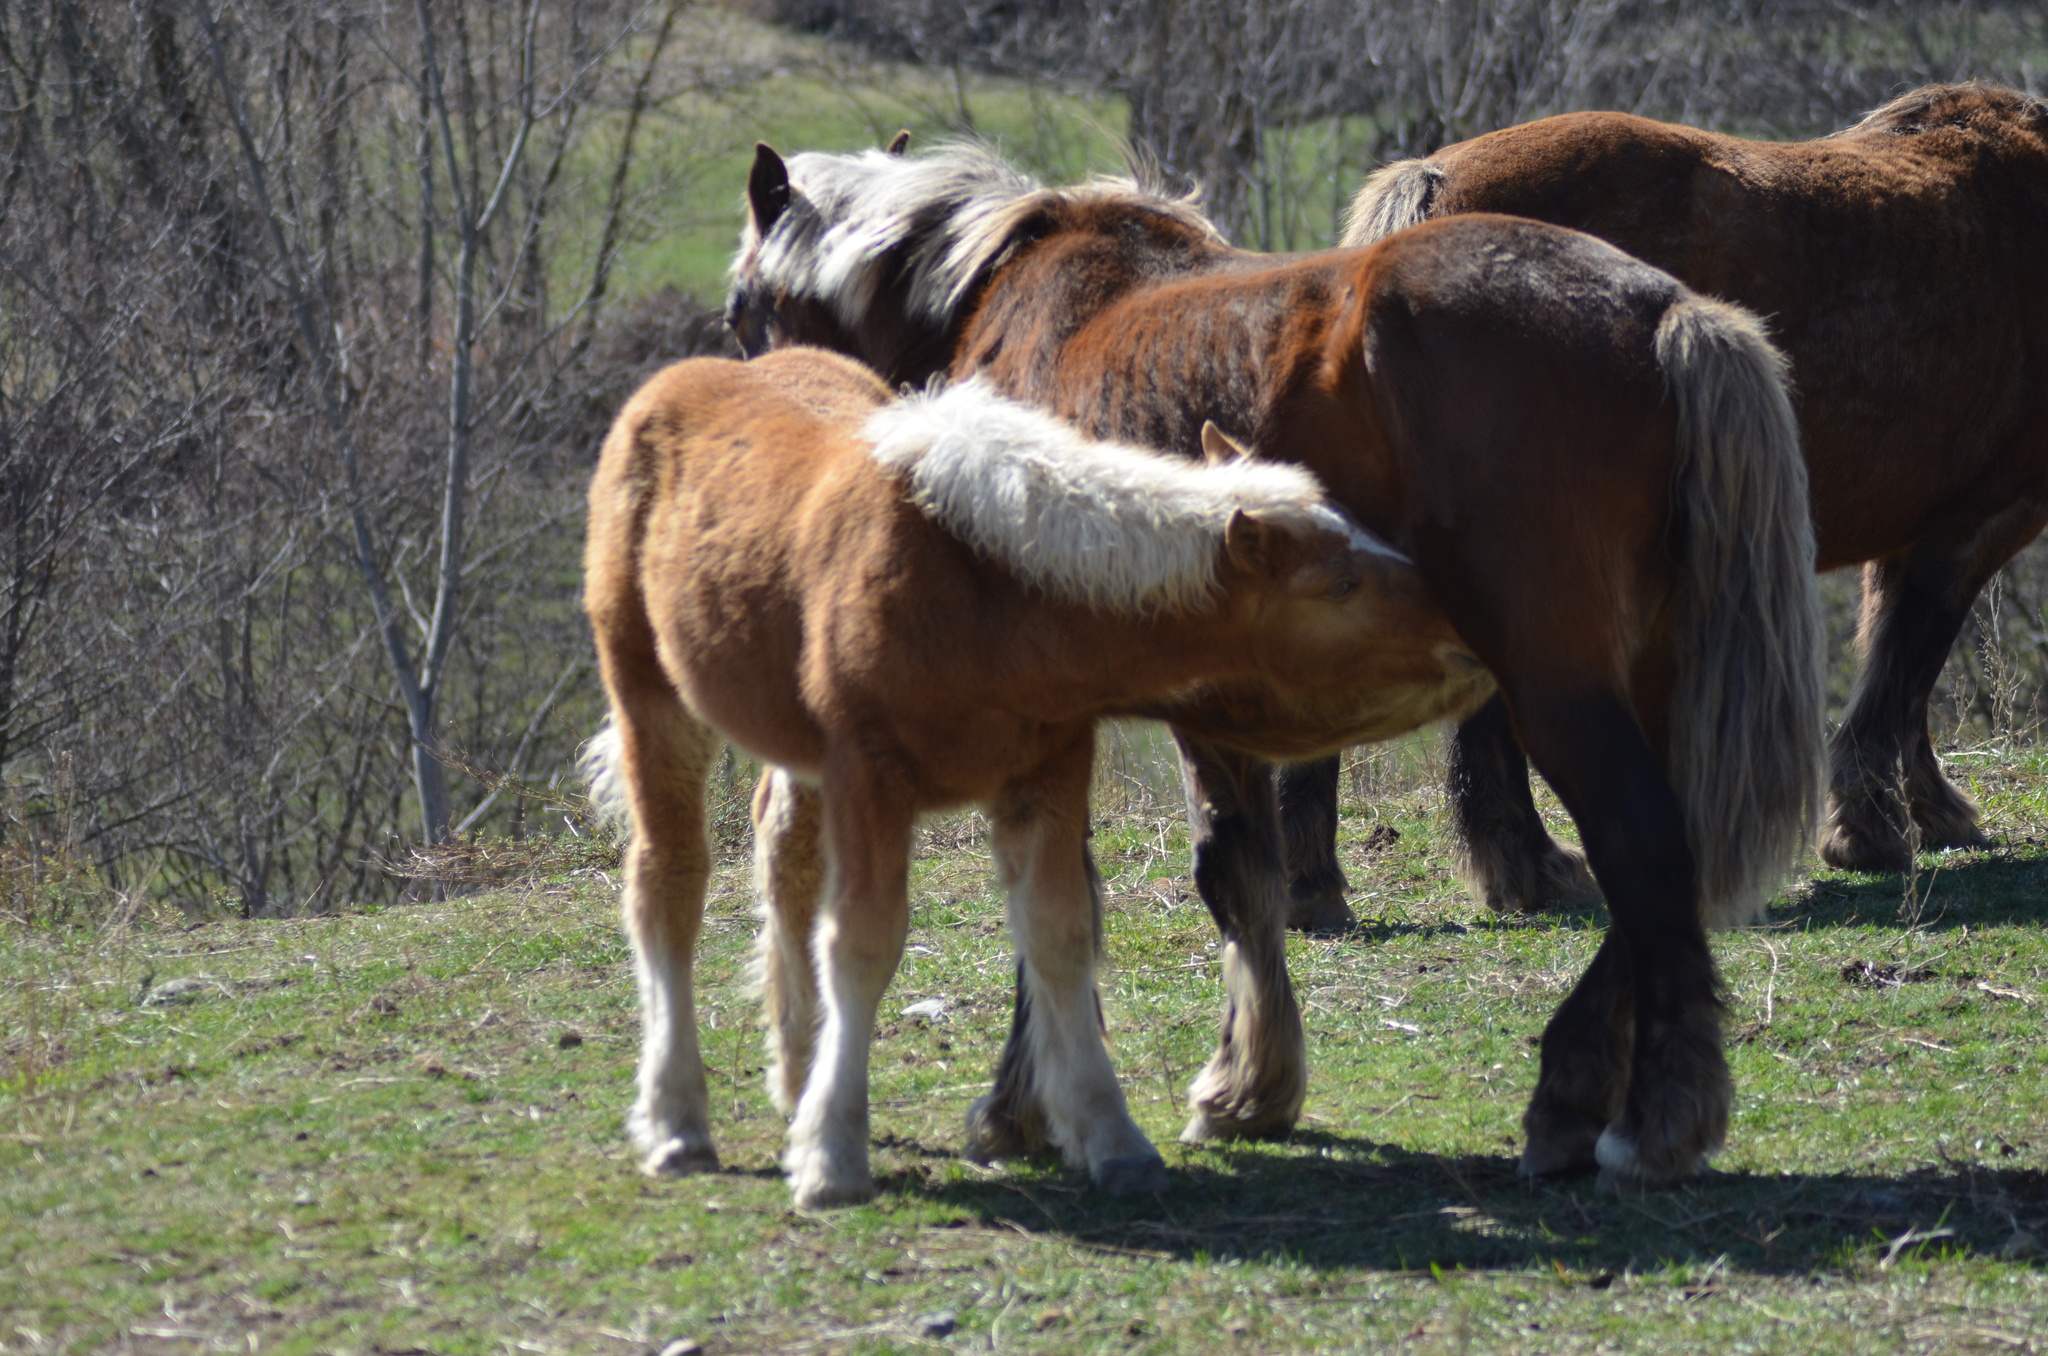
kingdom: Animalia
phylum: Chordata
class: Mammalia
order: Perissodactyla
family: Equidae
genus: Equus
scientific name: Equus caballus
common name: Horse
